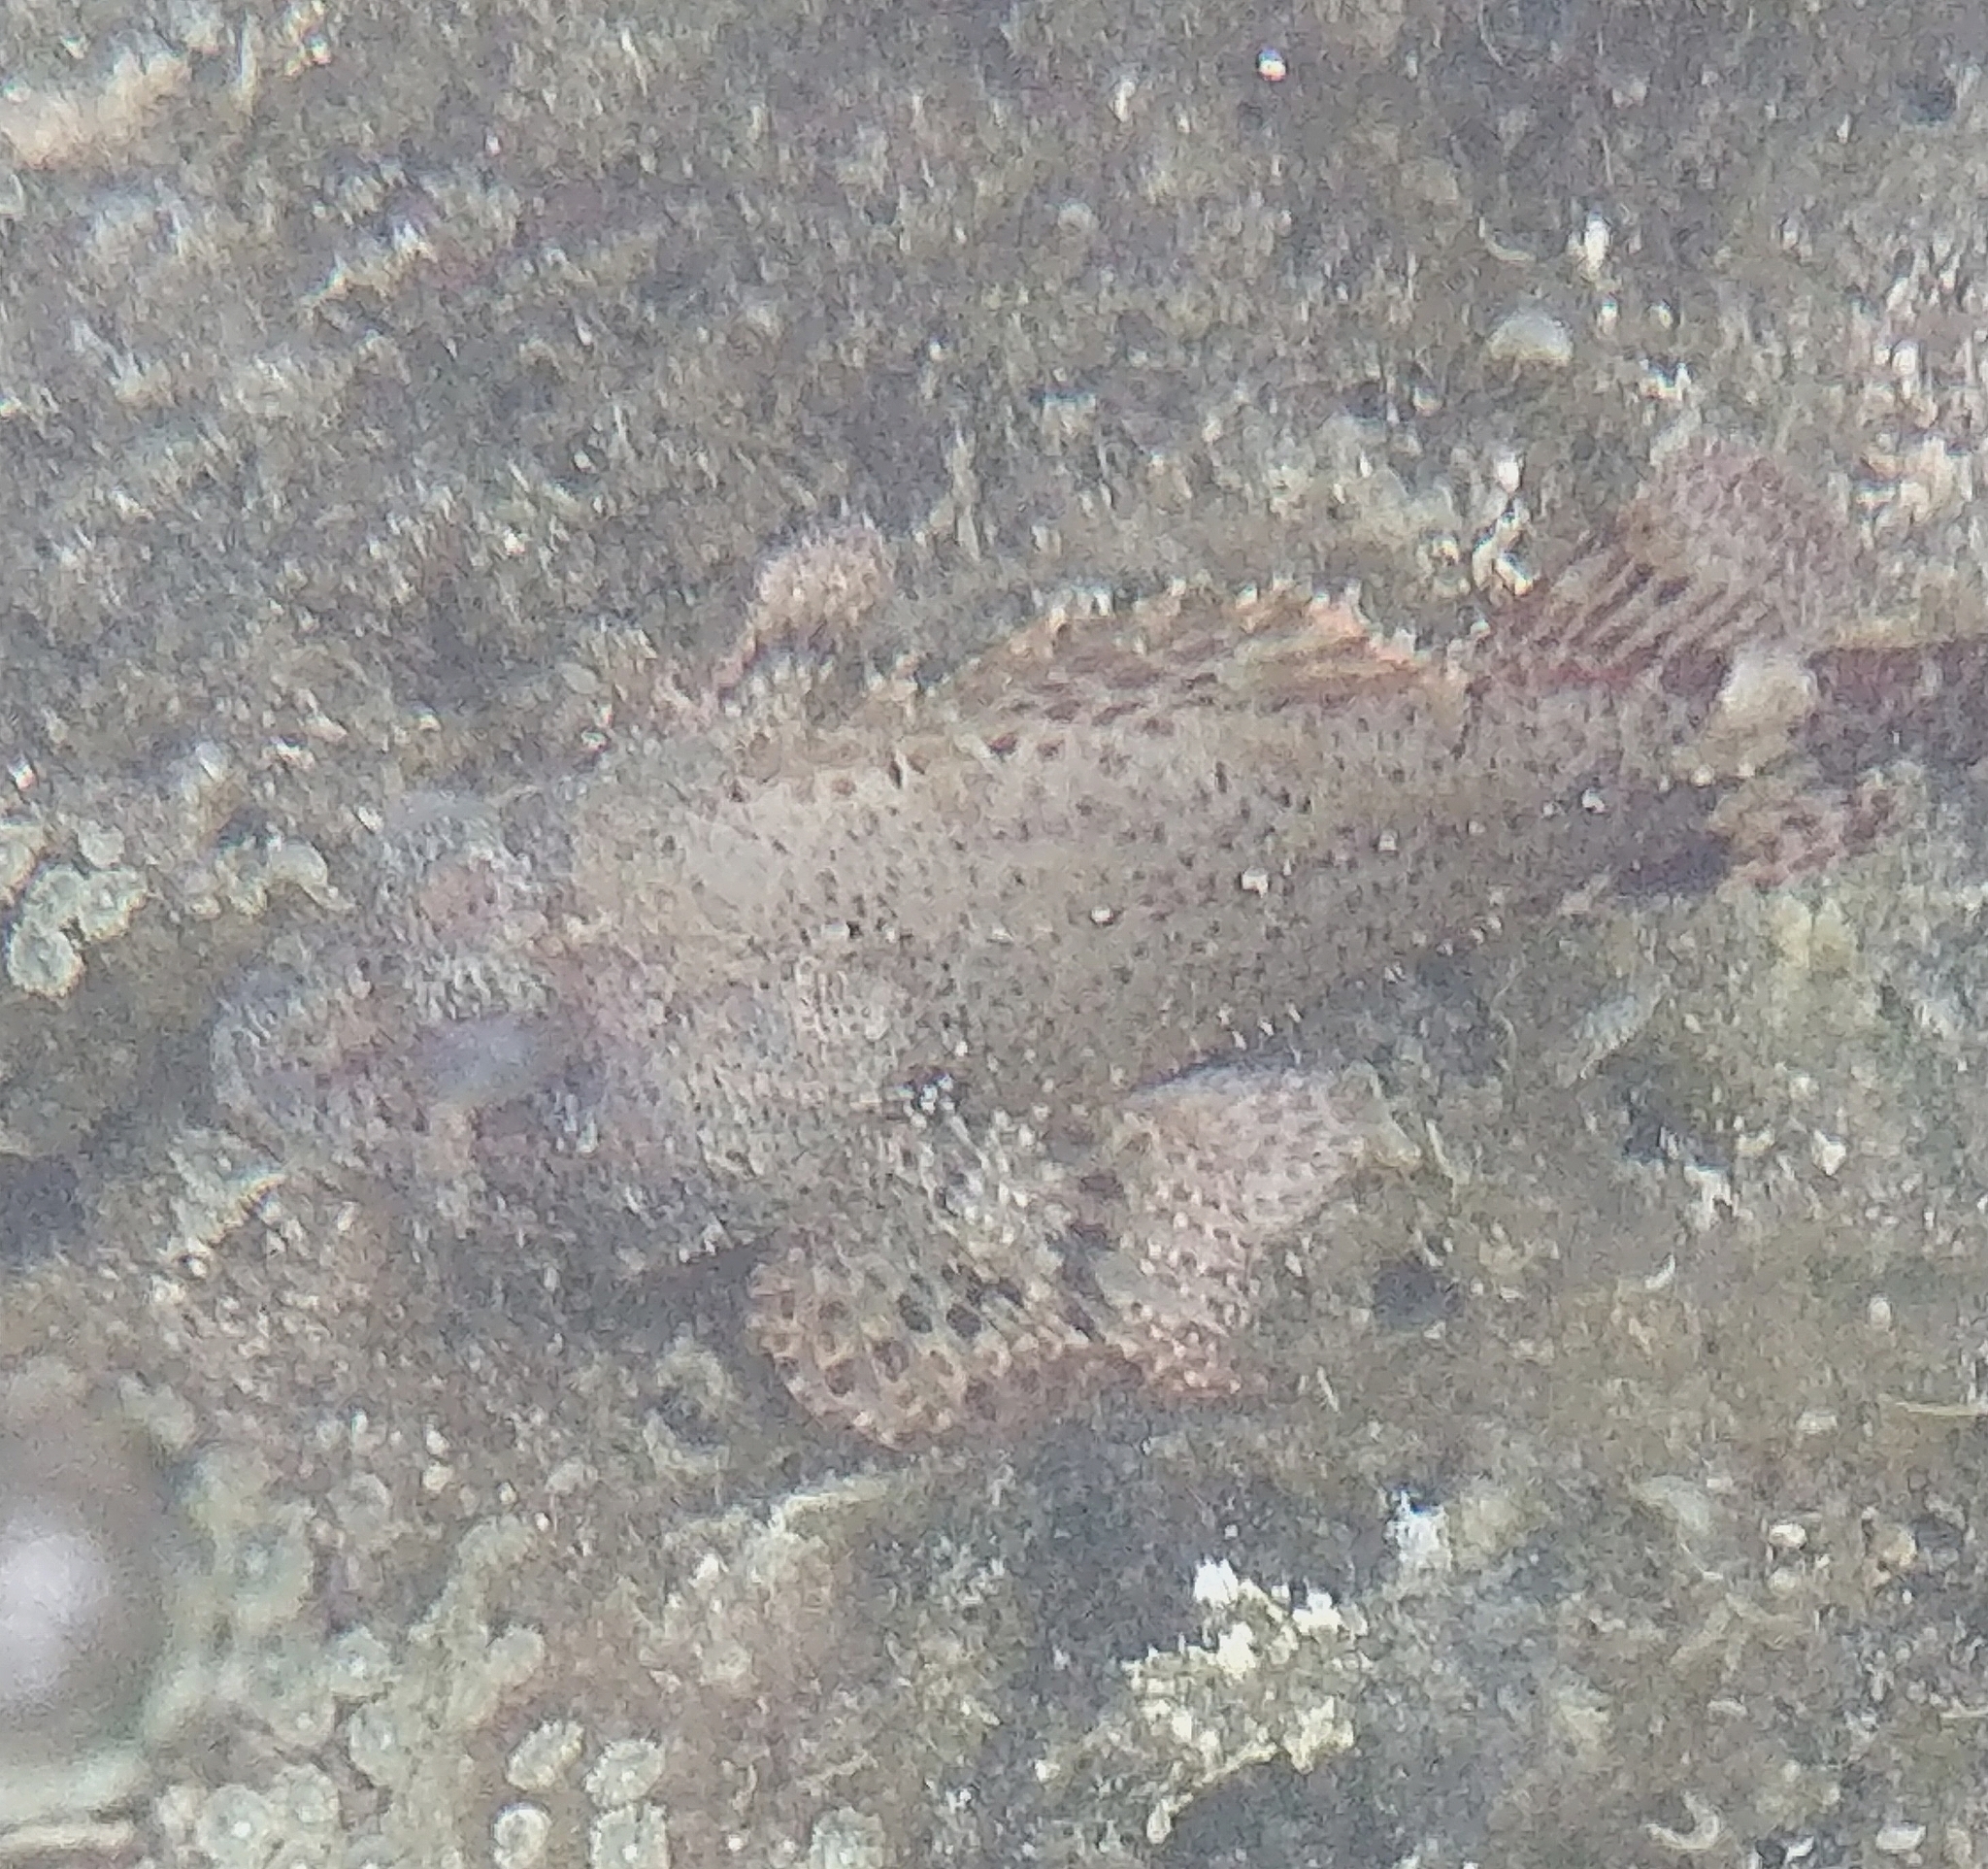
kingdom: Animalia
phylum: Chordata
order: Scorpaeniformes
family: Scorpaenidae
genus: Scorpaena
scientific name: Scorpaena maderensis
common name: Madeira rockfish
